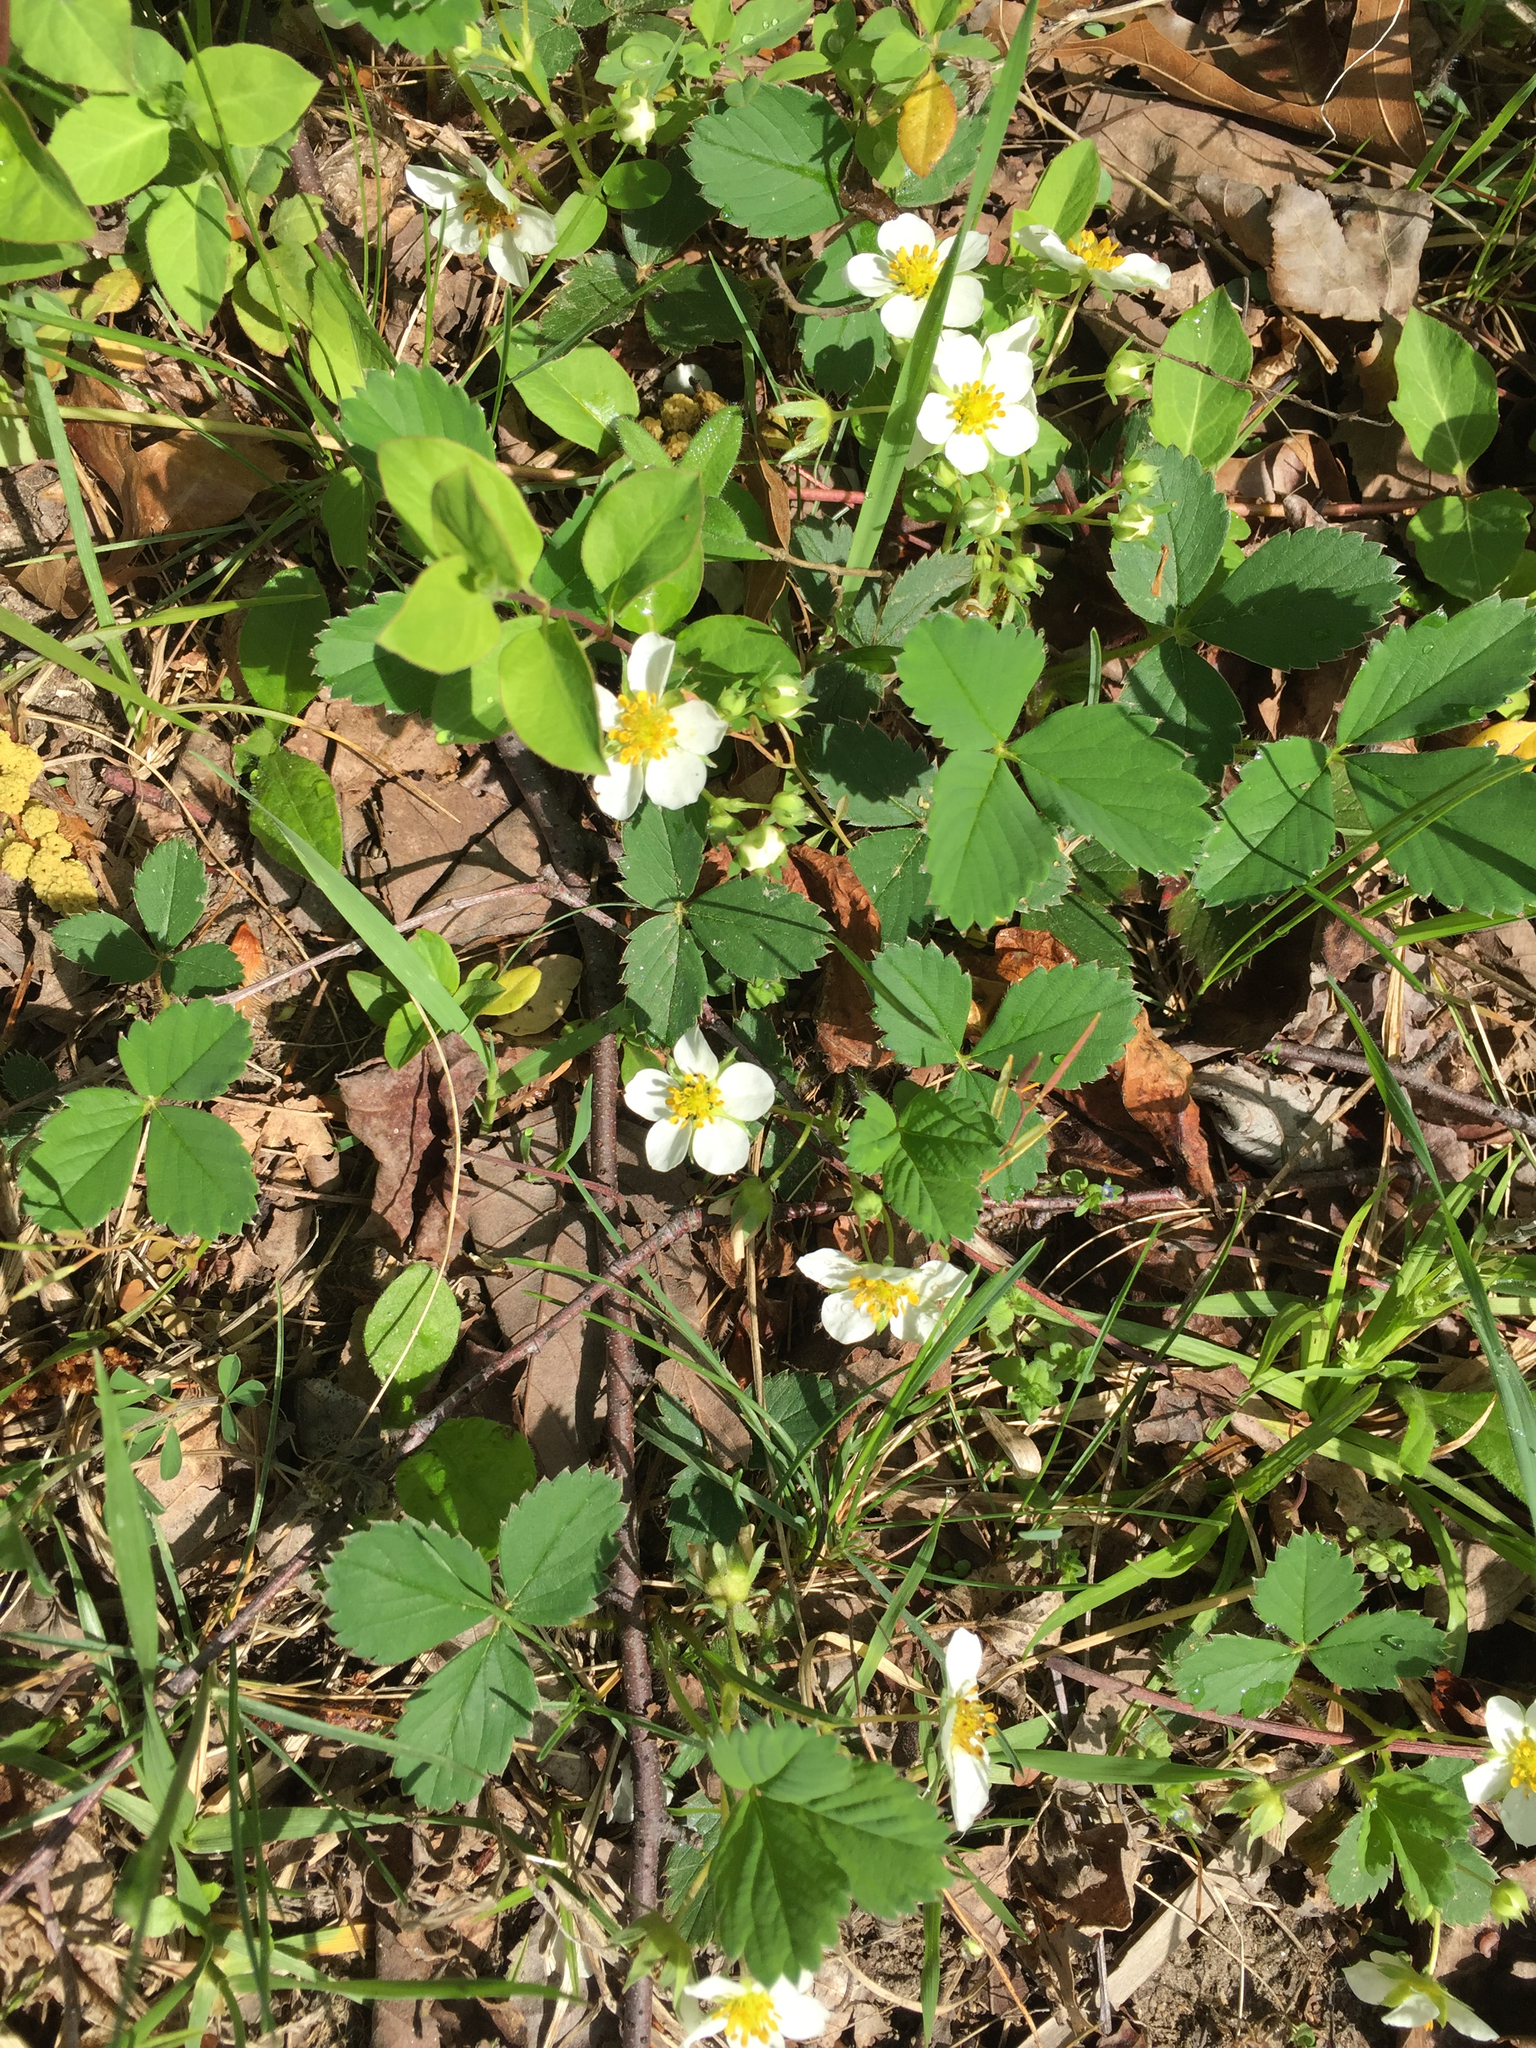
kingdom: Plantae
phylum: Tracheophyta
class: Magnoliopsida
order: Rosales
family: Rosaceae
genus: Fragaria
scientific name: Fragaria virginiana
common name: Thickleaved wild strawberry
